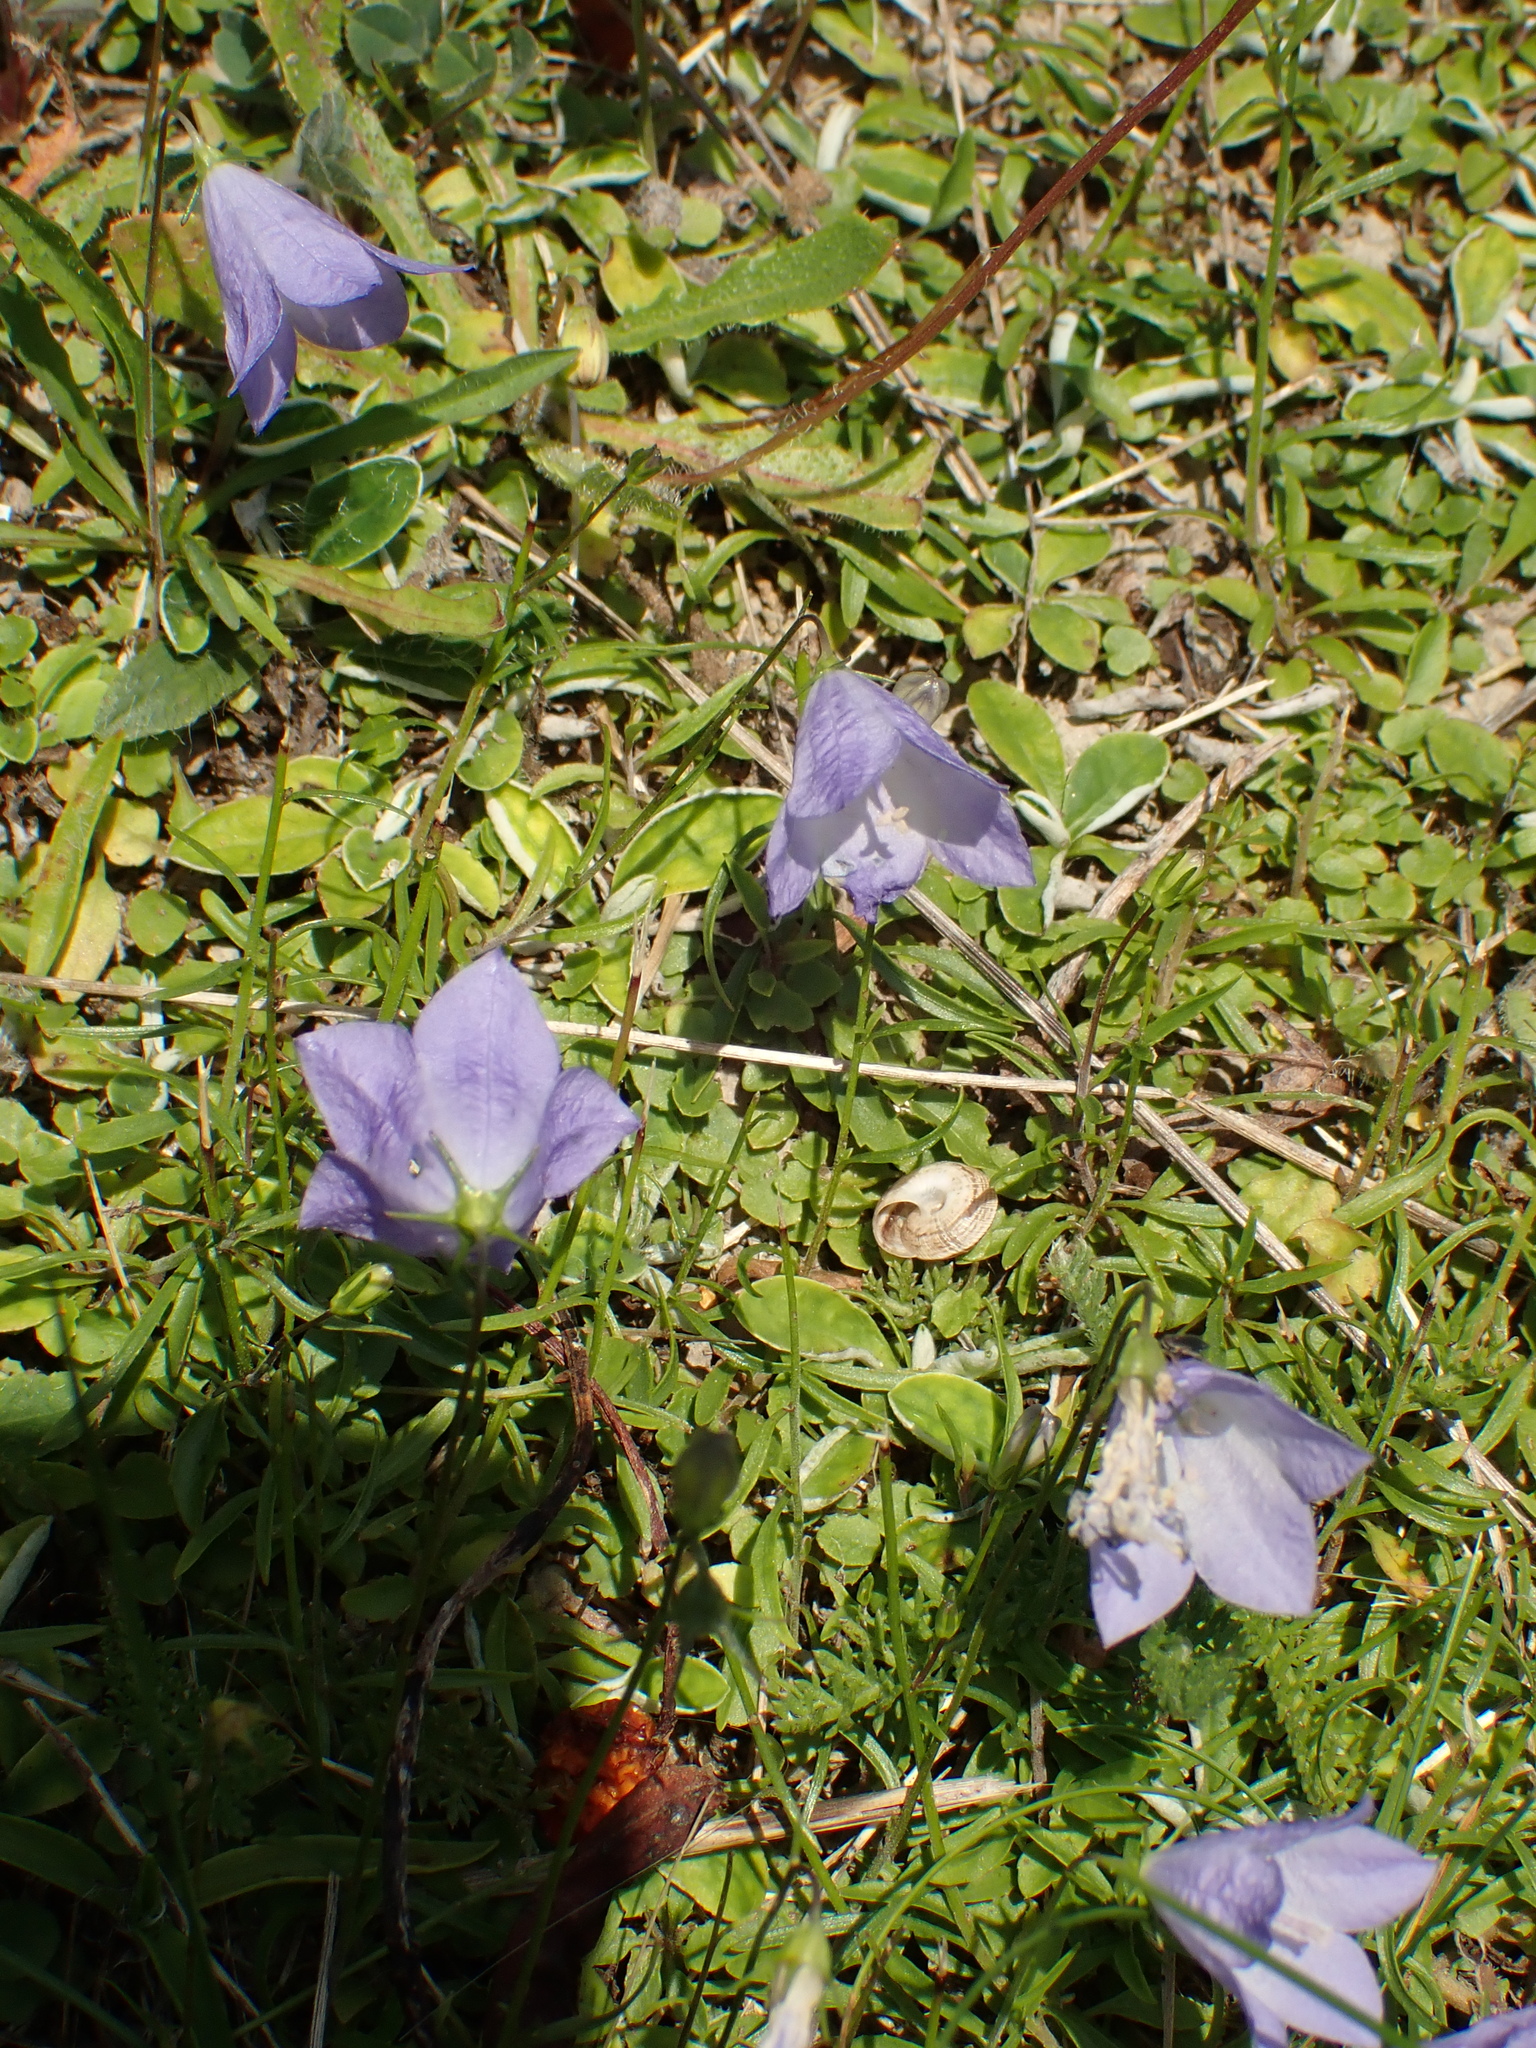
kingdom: Plantae
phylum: Tracheophyta
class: Magnoliopsida
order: Asterales
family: Campanulaceae
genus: Campanula
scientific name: Campanula rotundifolia
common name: Harebell
